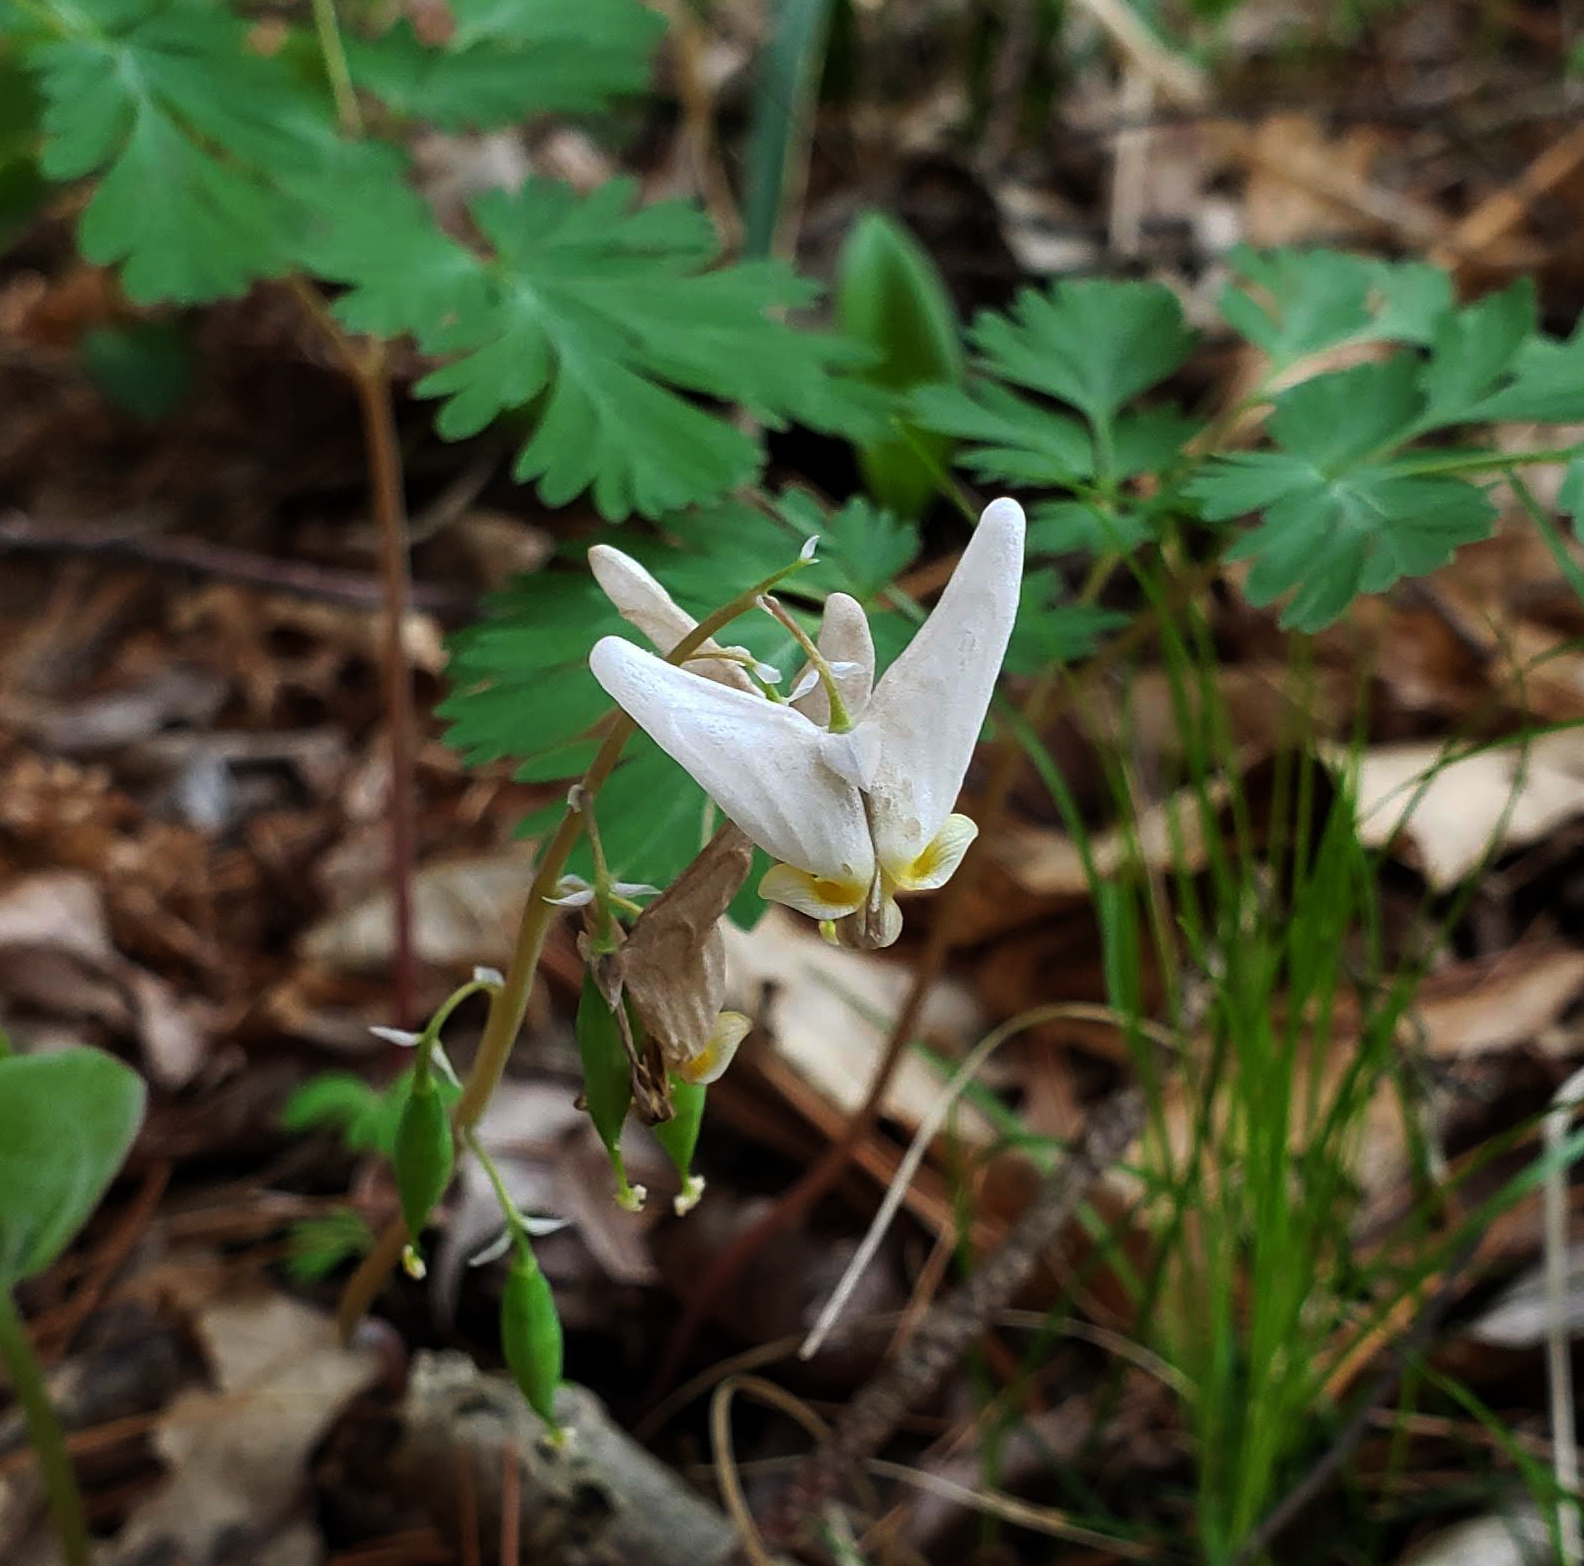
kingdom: Plantae
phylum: Tracheophyta
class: Magnoliopsida
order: Ranunculales
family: Papaveraceae
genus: Dicentra
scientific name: Dicentra cucullaria
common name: Dutchman's breeches
